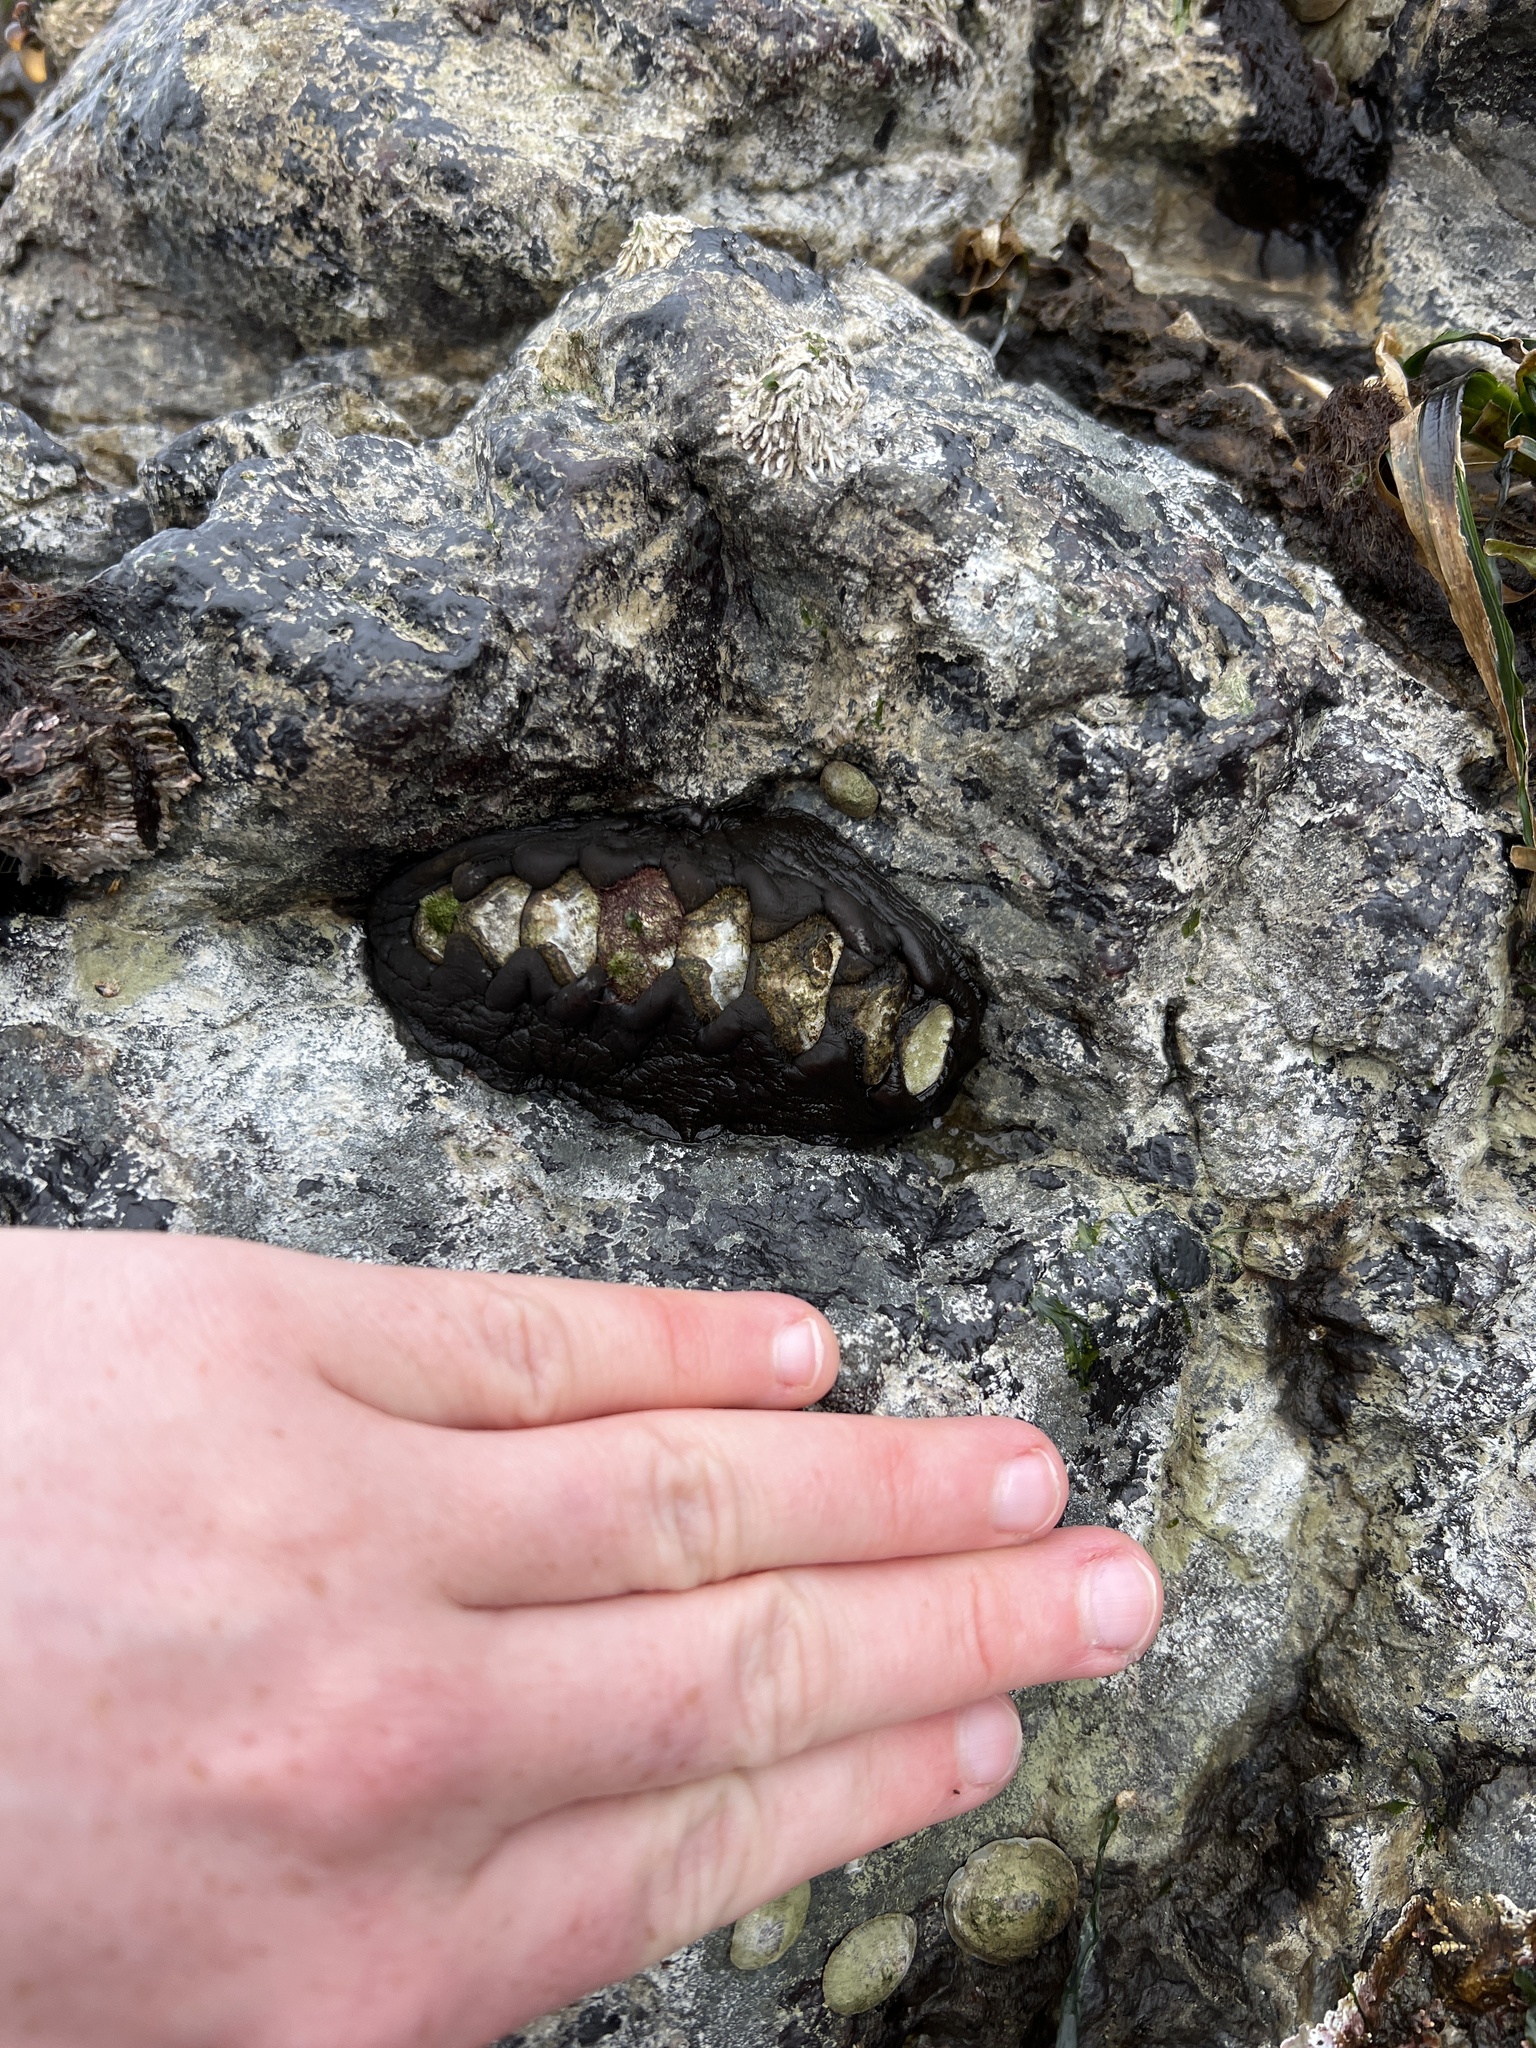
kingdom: Animalia
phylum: Mollusca
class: Polyplacophora
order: Chitonida
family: Mopaliidae
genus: Katharina
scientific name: Katharina tunicata
